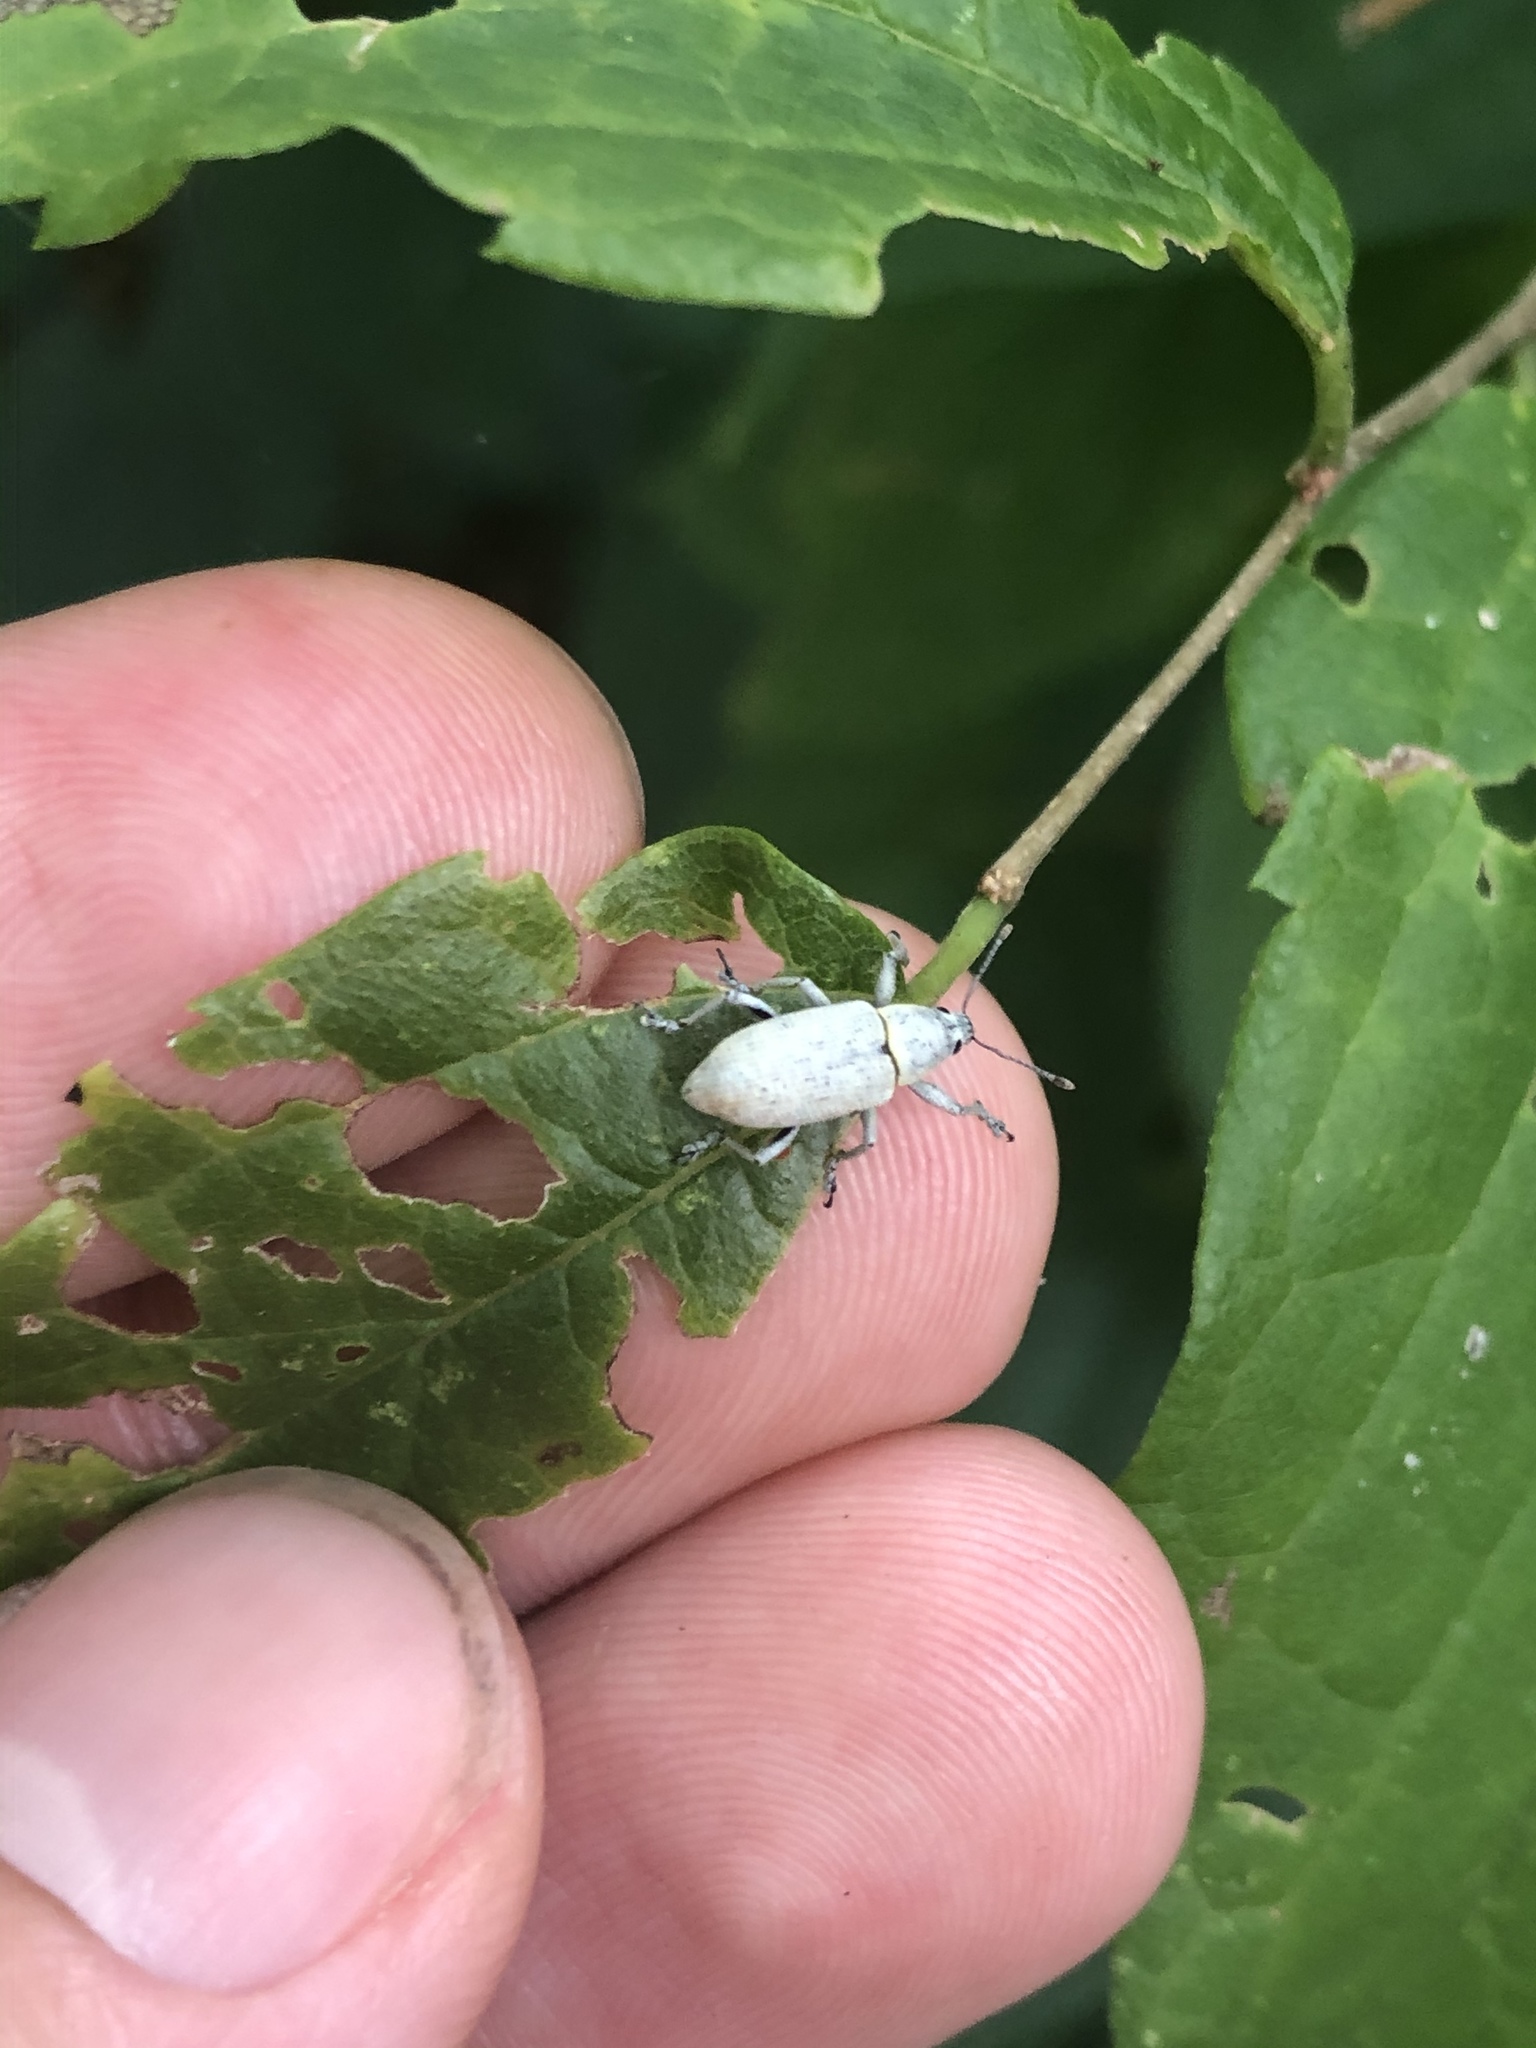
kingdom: Animalia
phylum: Arthropoda
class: Insecta
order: Coleoptera
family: Curculionidae
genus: Pachnaeus
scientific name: Pachnaeus opalus
